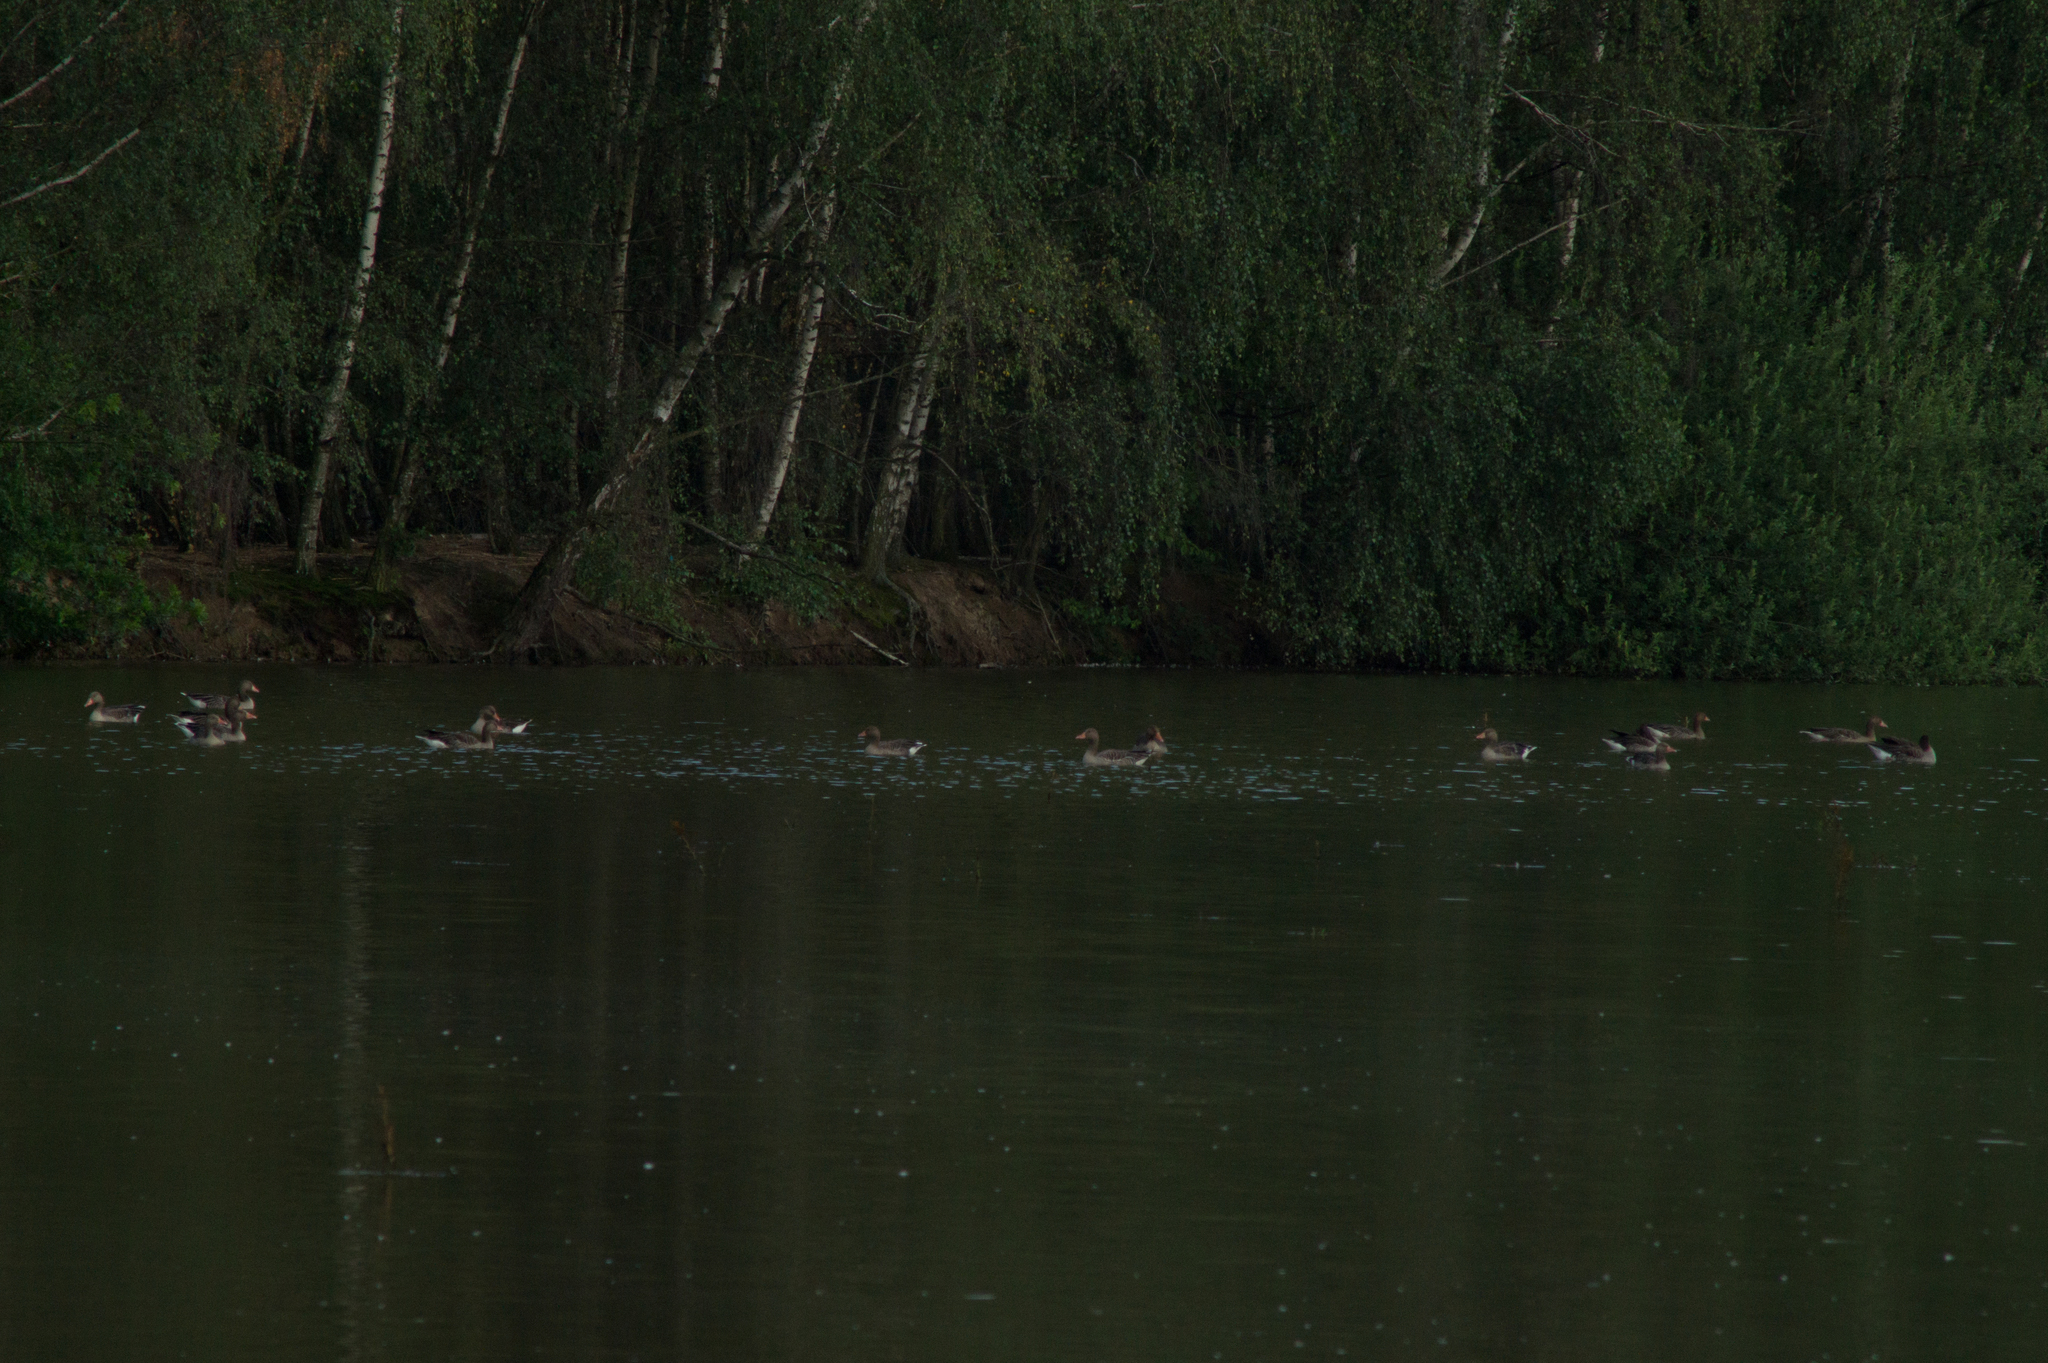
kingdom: Animalia
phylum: Chordata
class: Aves
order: Anseriformes
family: Anatidae
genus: Anser
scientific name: Anser anser
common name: Greylag goose
